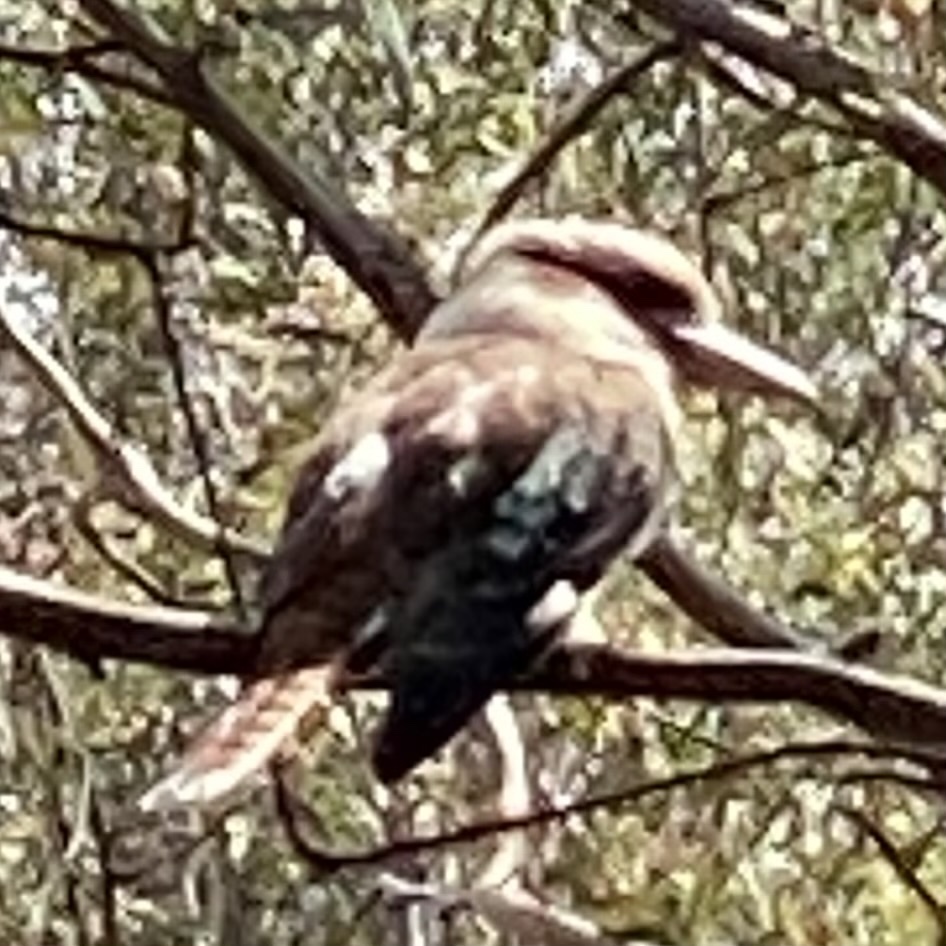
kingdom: Animalia
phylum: Chordata
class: Aves
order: Coraciiformes
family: Alcedinidae
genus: Dacelo
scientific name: Dacelo novaeguineae
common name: Laughing kookaburra
